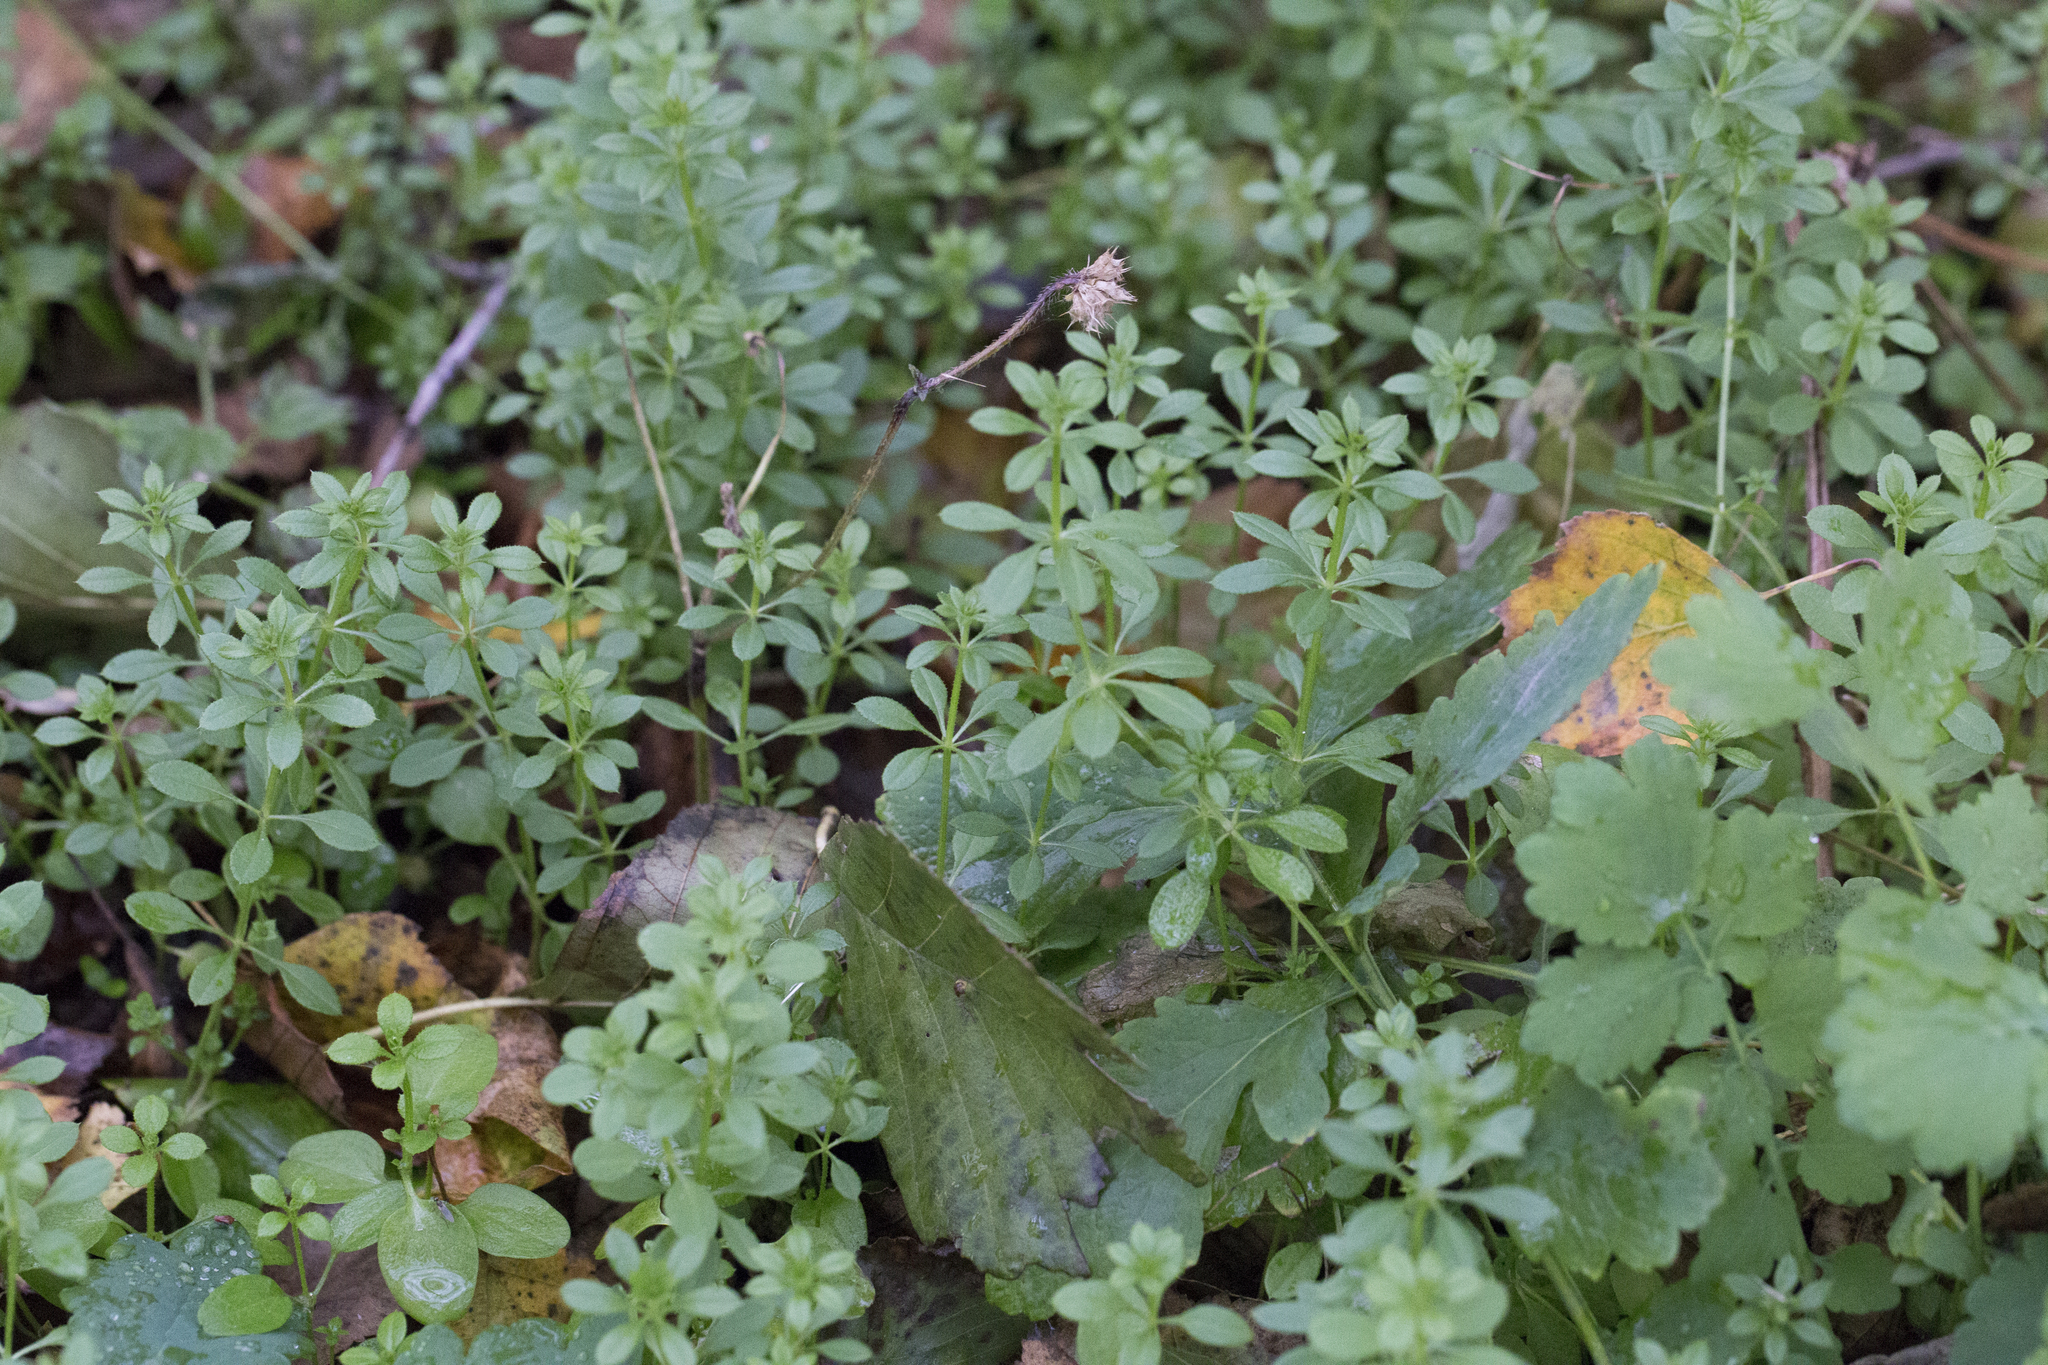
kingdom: Plantae
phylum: Tracheophyta
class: Magnoliopsida
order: Gentianales
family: Rubiaceae
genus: Galium
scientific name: Galium aparine
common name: Cleavers
